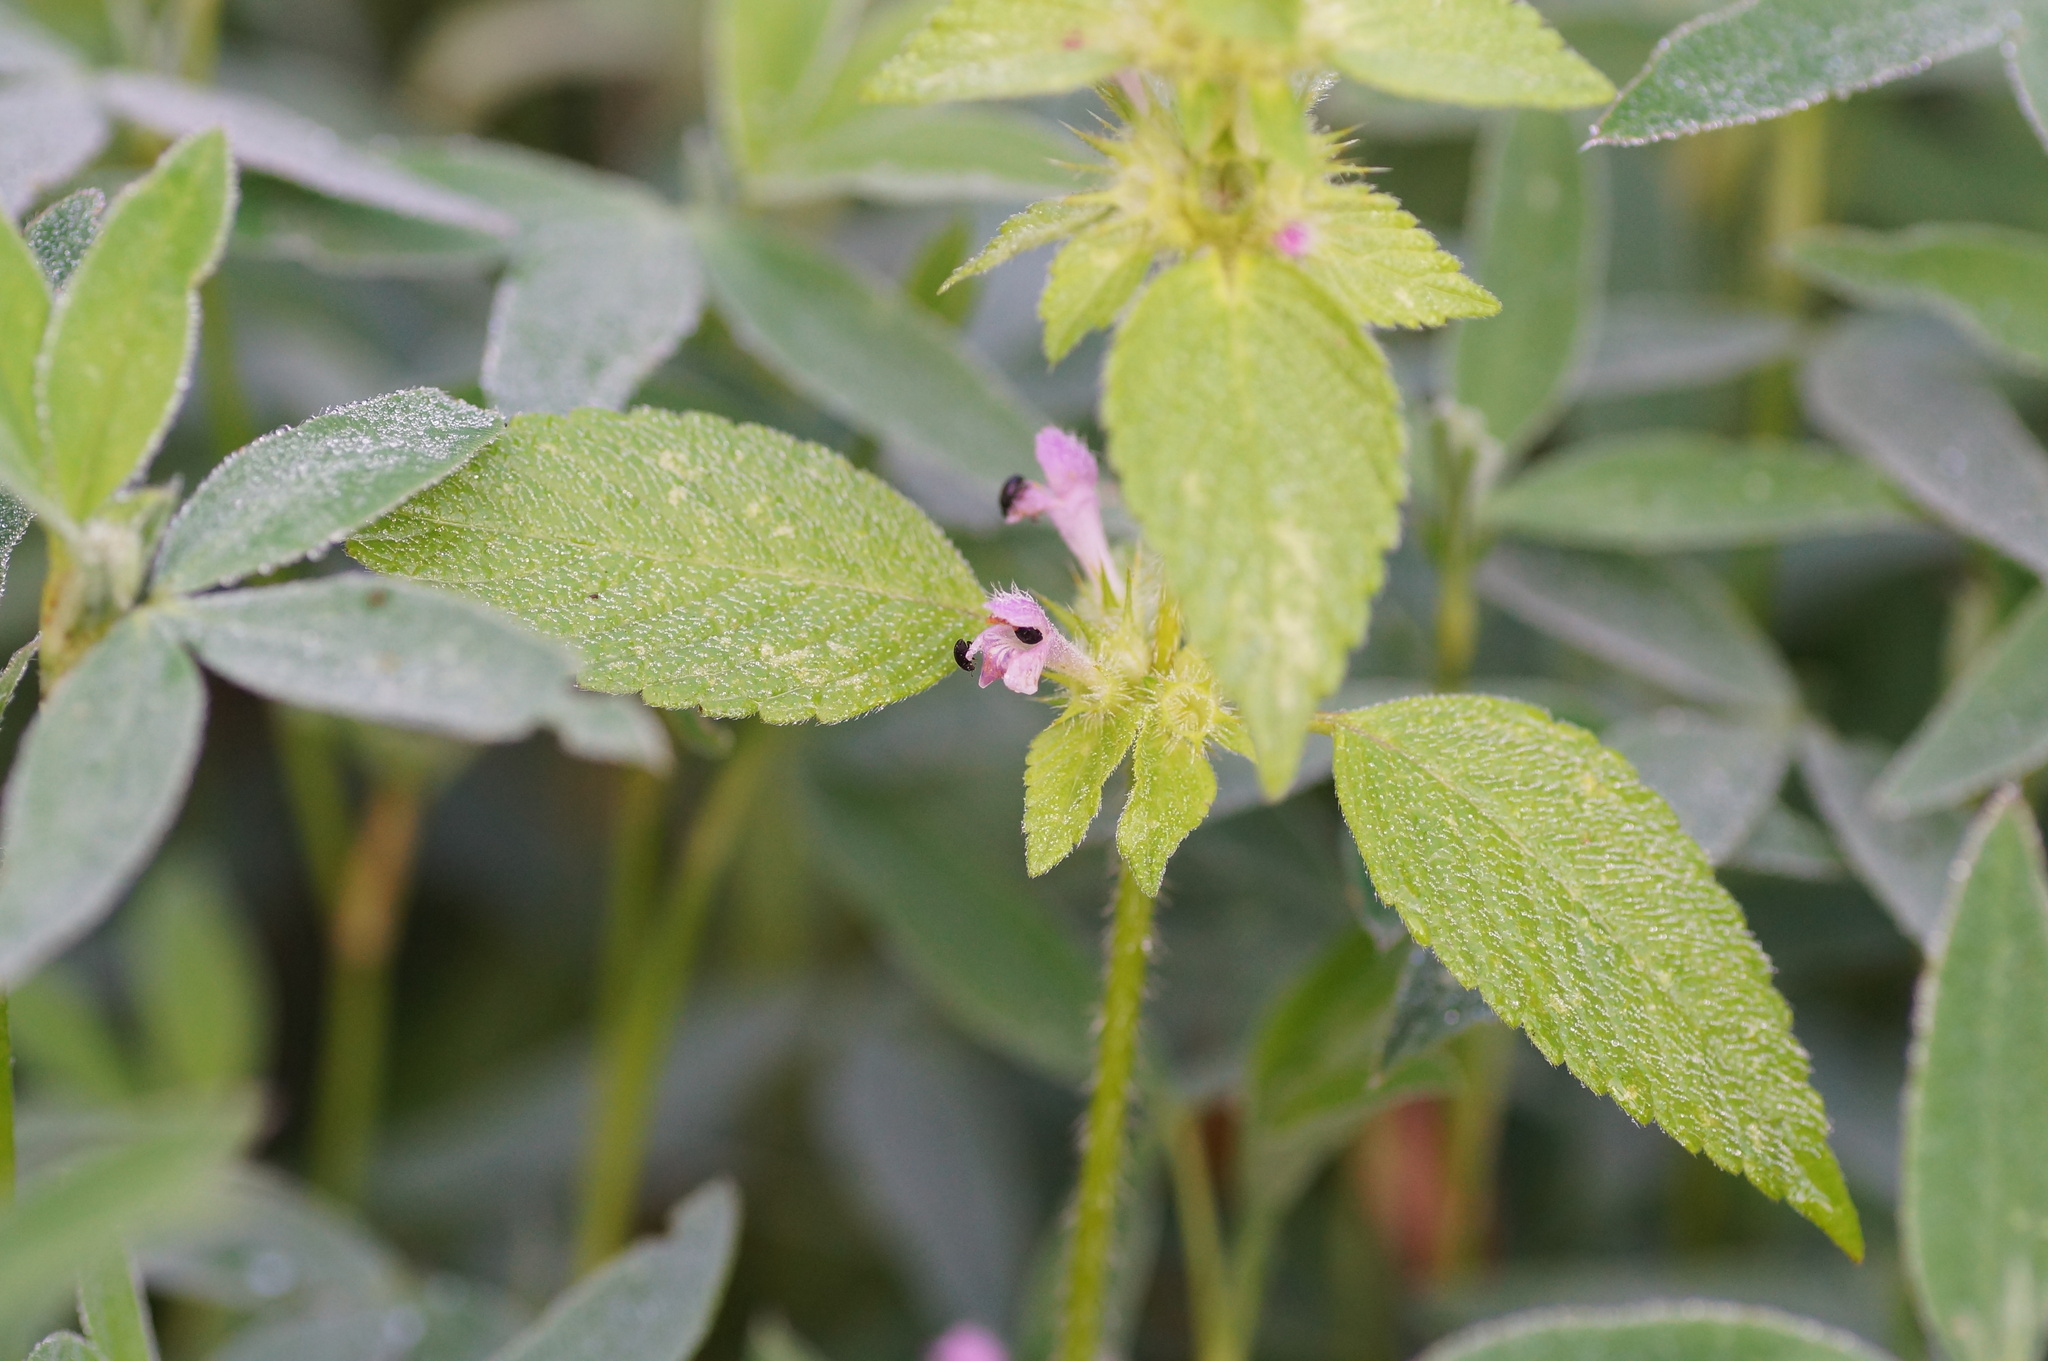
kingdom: Plantae
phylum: Tracheophyta
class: Magnoliopsida
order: Lamiales
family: Lamiaceae
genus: Galeopsis
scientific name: Galeopsis bifida
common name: Bifid hemp-nettle
